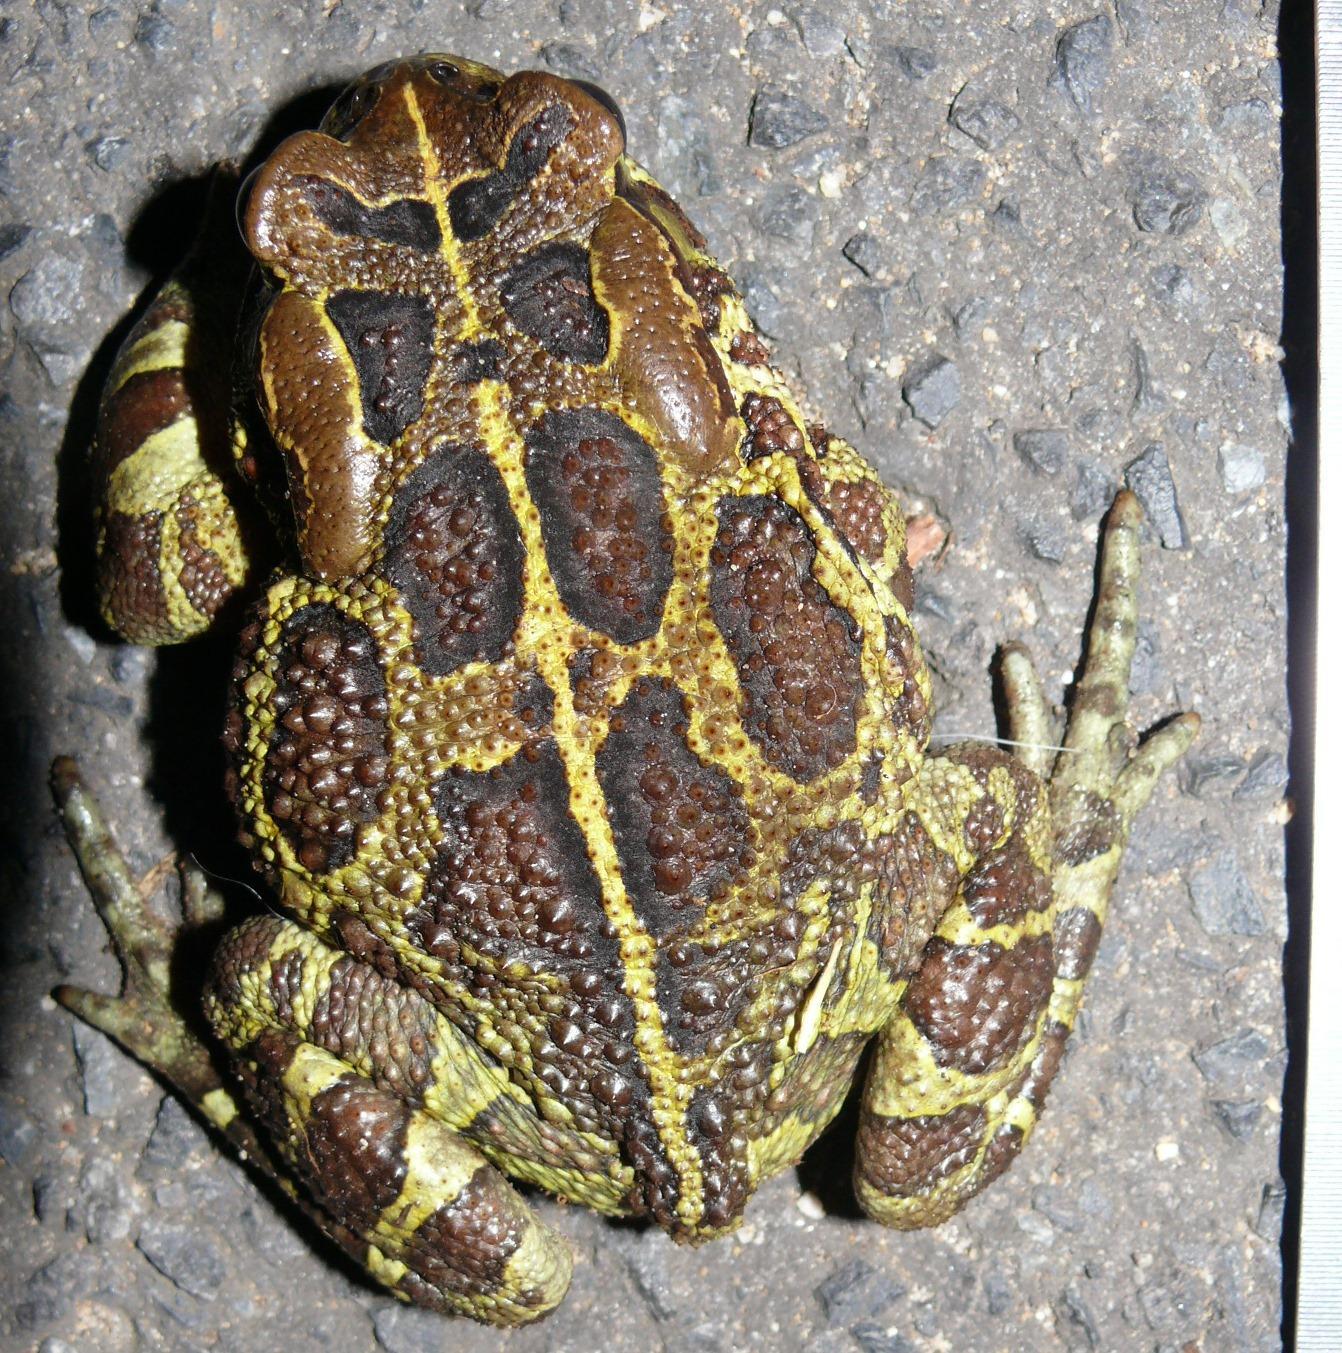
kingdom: Animalia
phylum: Chordata
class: Amphibia
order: Anura
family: Bufonidae
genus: Sclerophrys
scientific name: Sclerophrys pantherina
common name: Panther toad
